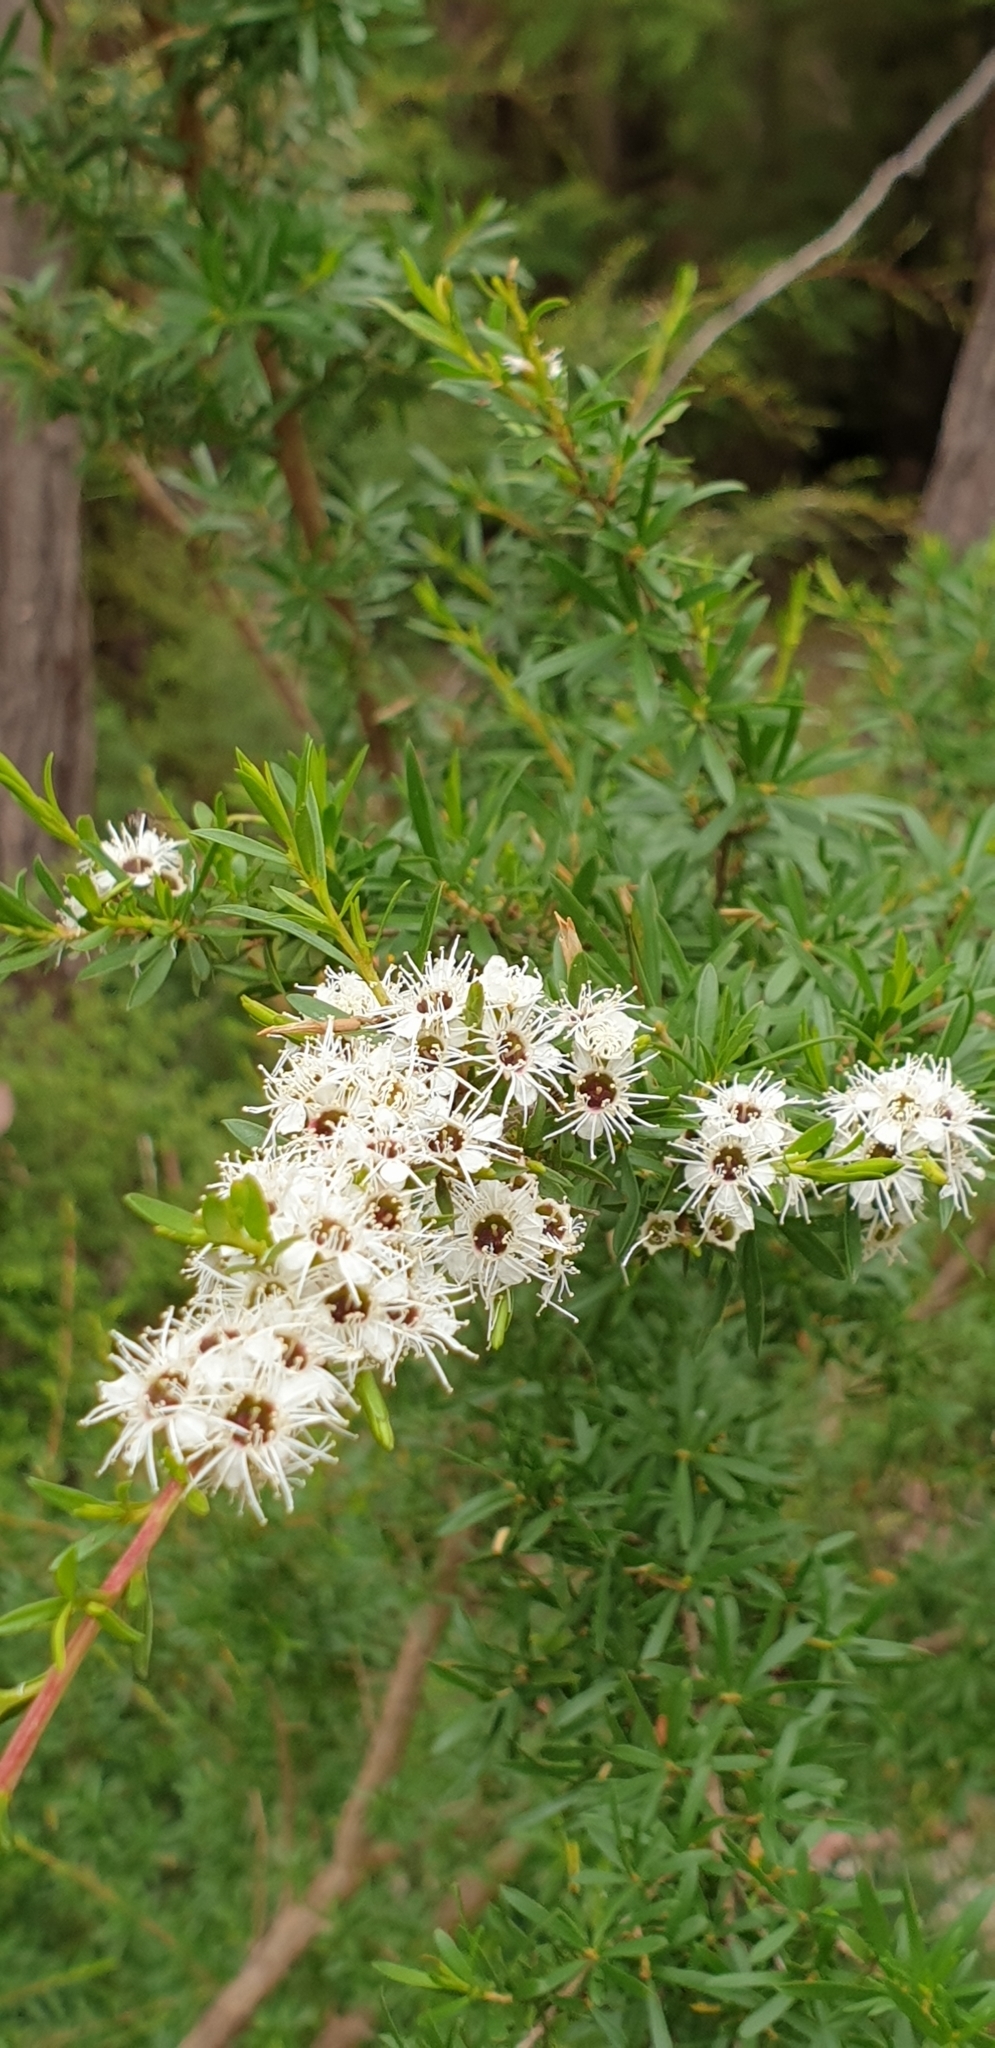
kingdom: Plantae
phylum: Tracheophyta
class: Magnoliopsida
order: Myrtales
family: Myrtaceae
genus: Kunzea
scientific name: Kunzea leptospermoides
